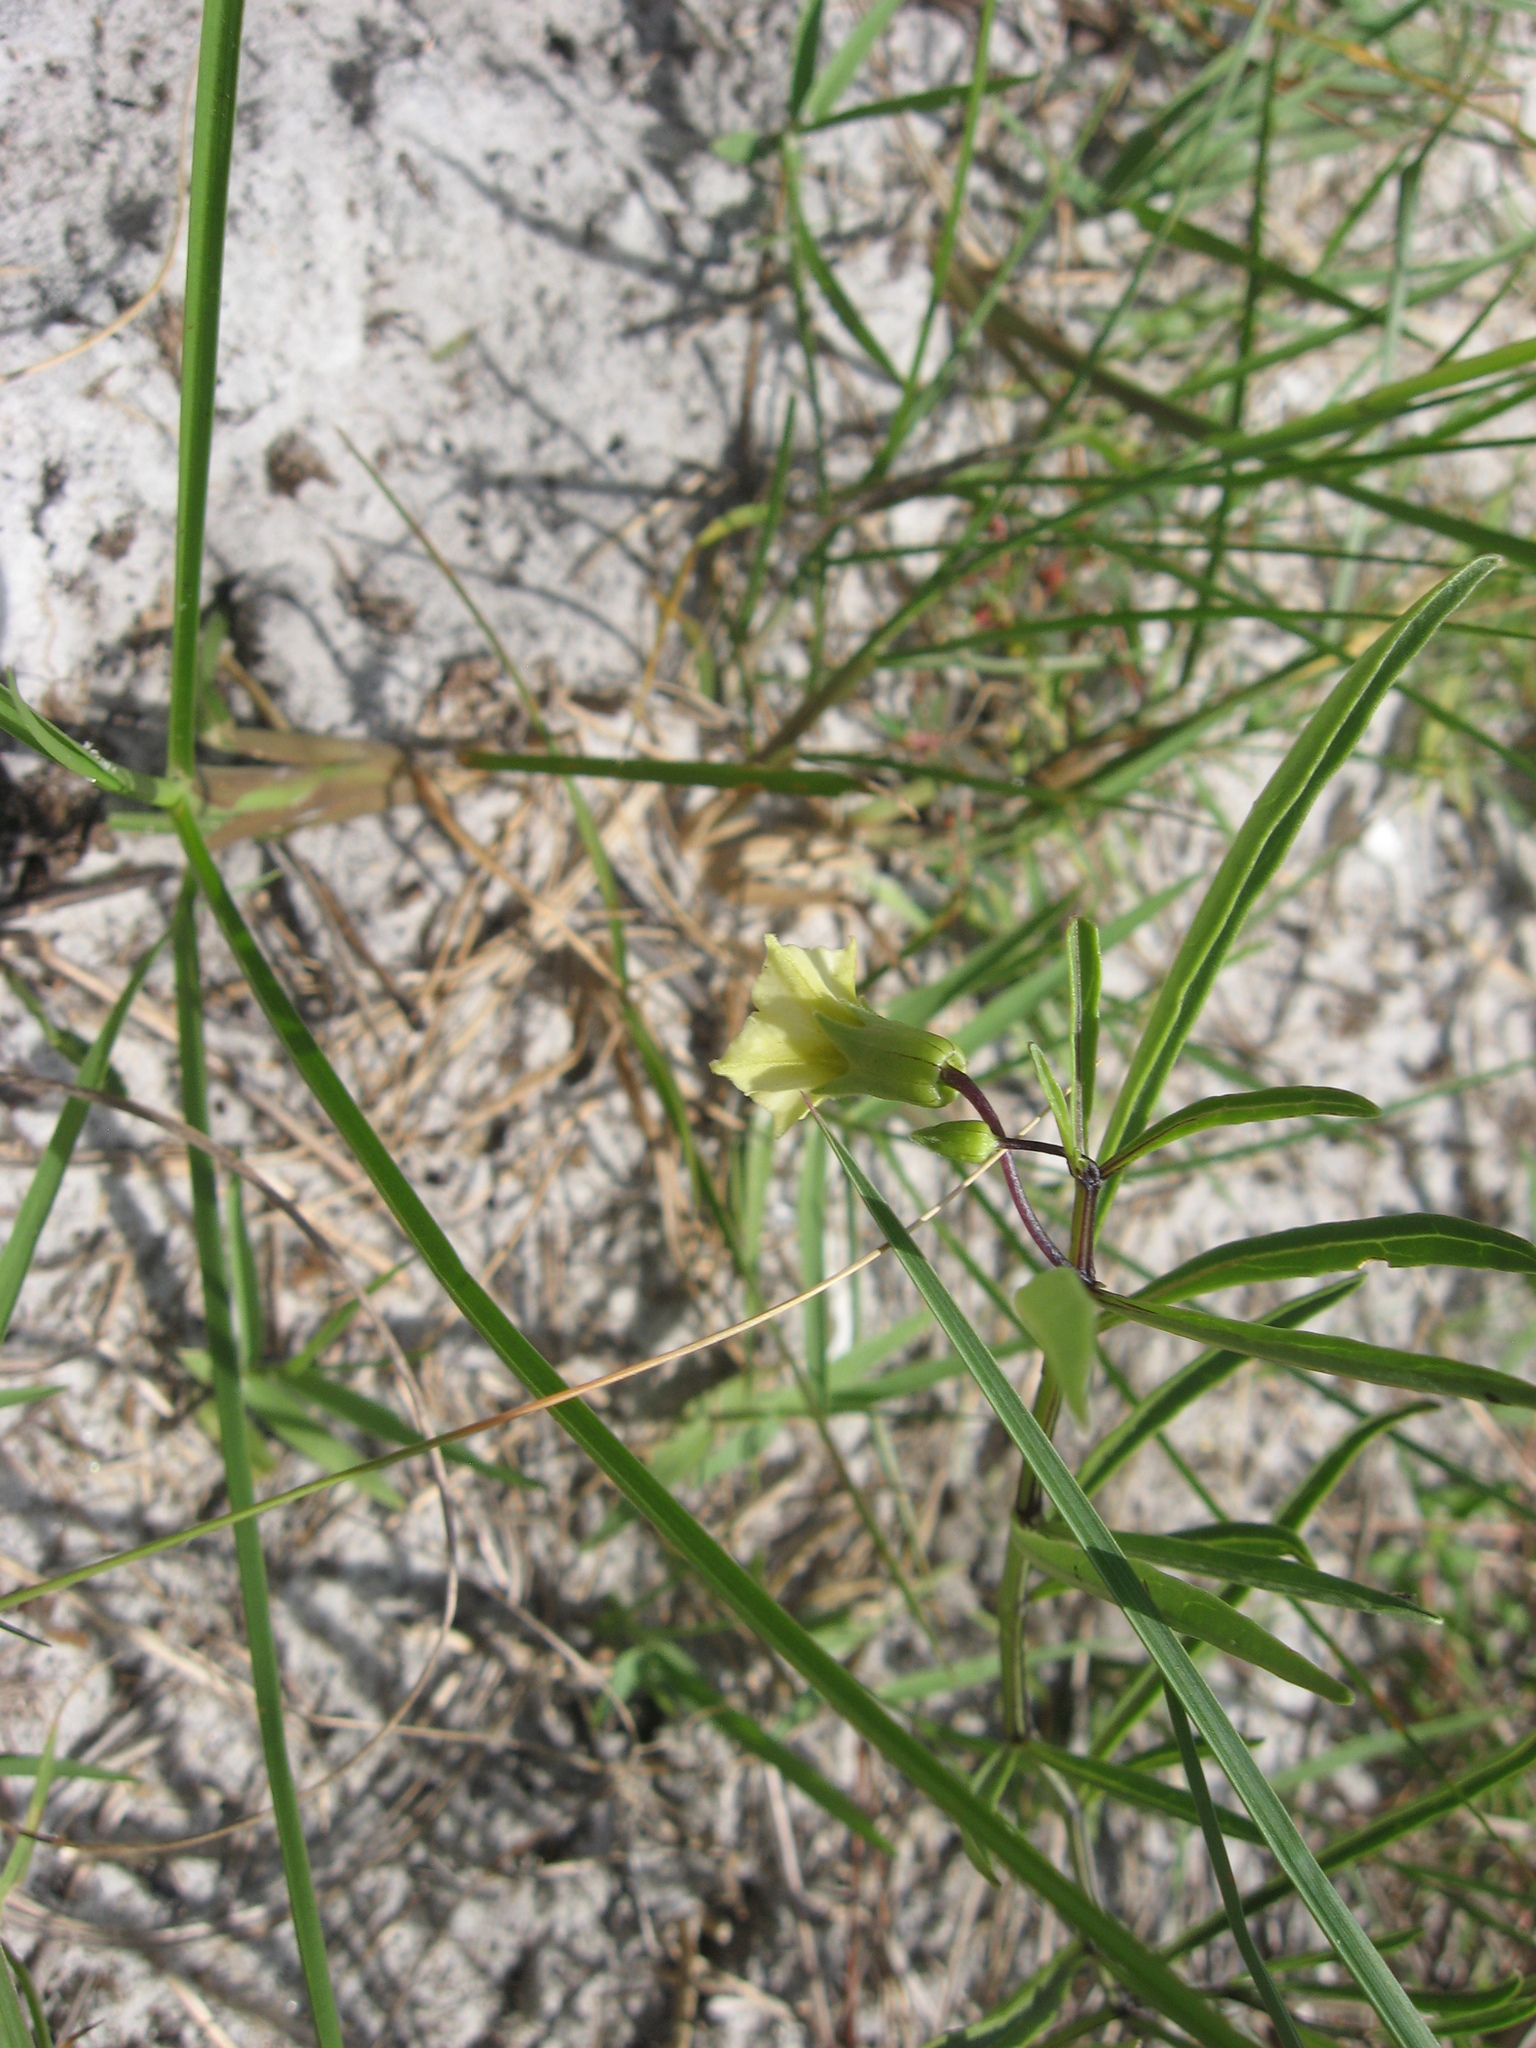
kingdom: Plantae
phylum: Tracheophyta
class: Magnoliopsida
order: Solanales
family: Solanaceae
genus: Physalis
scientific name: Physalis angustifolia
